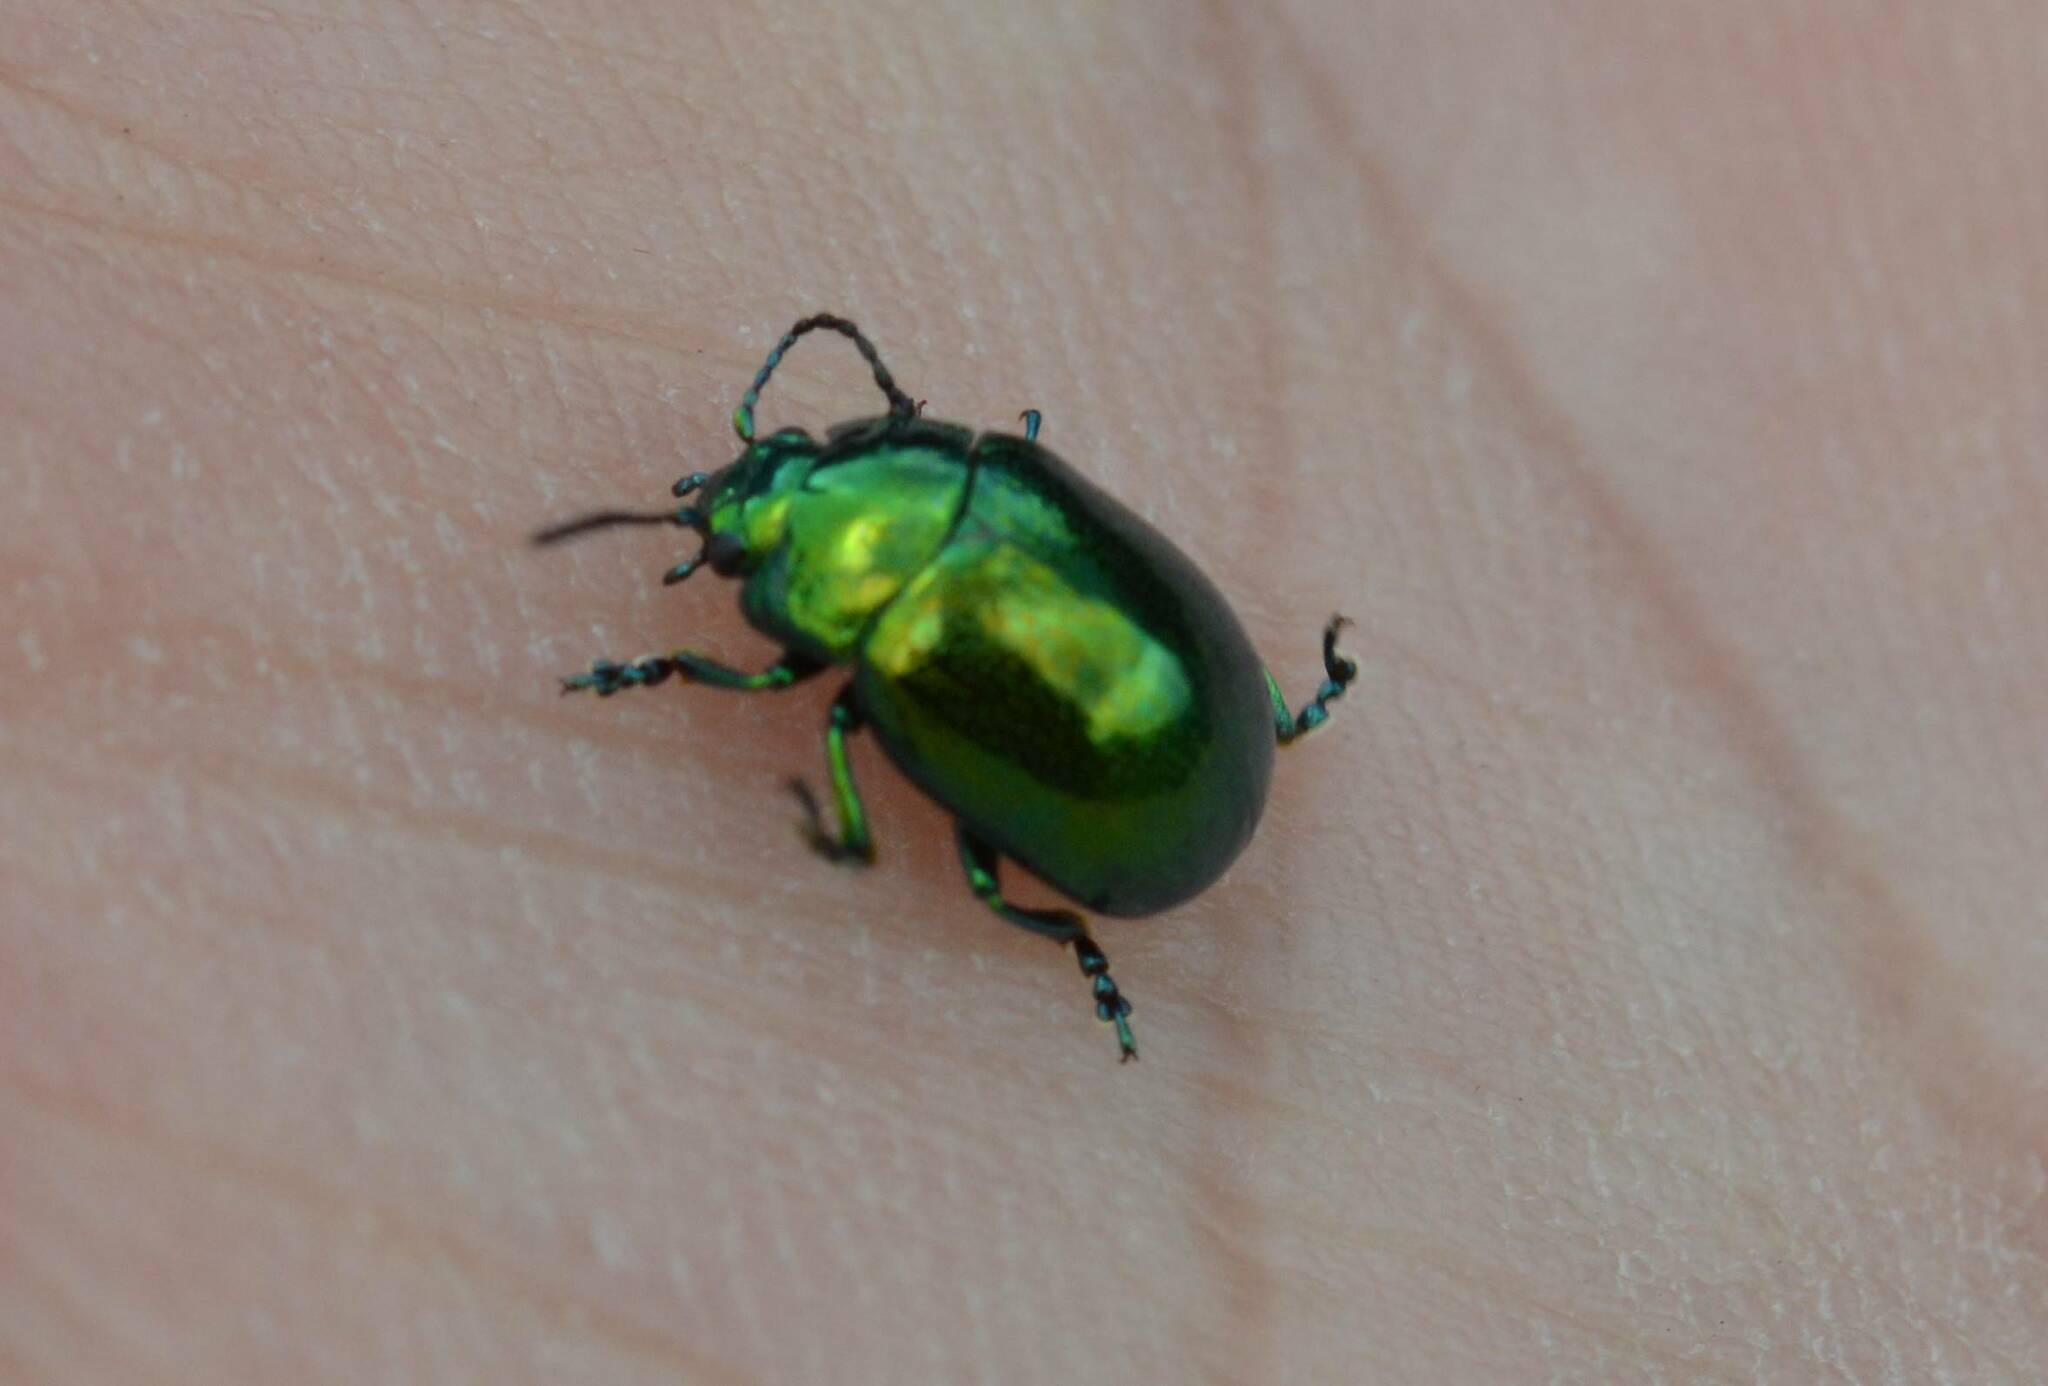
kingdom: Animalia
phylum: Arthropoda
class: Insecta
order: Coleoptera
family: Chrysomelidae
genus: Chrysolina
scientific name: Chrysolina viridana
